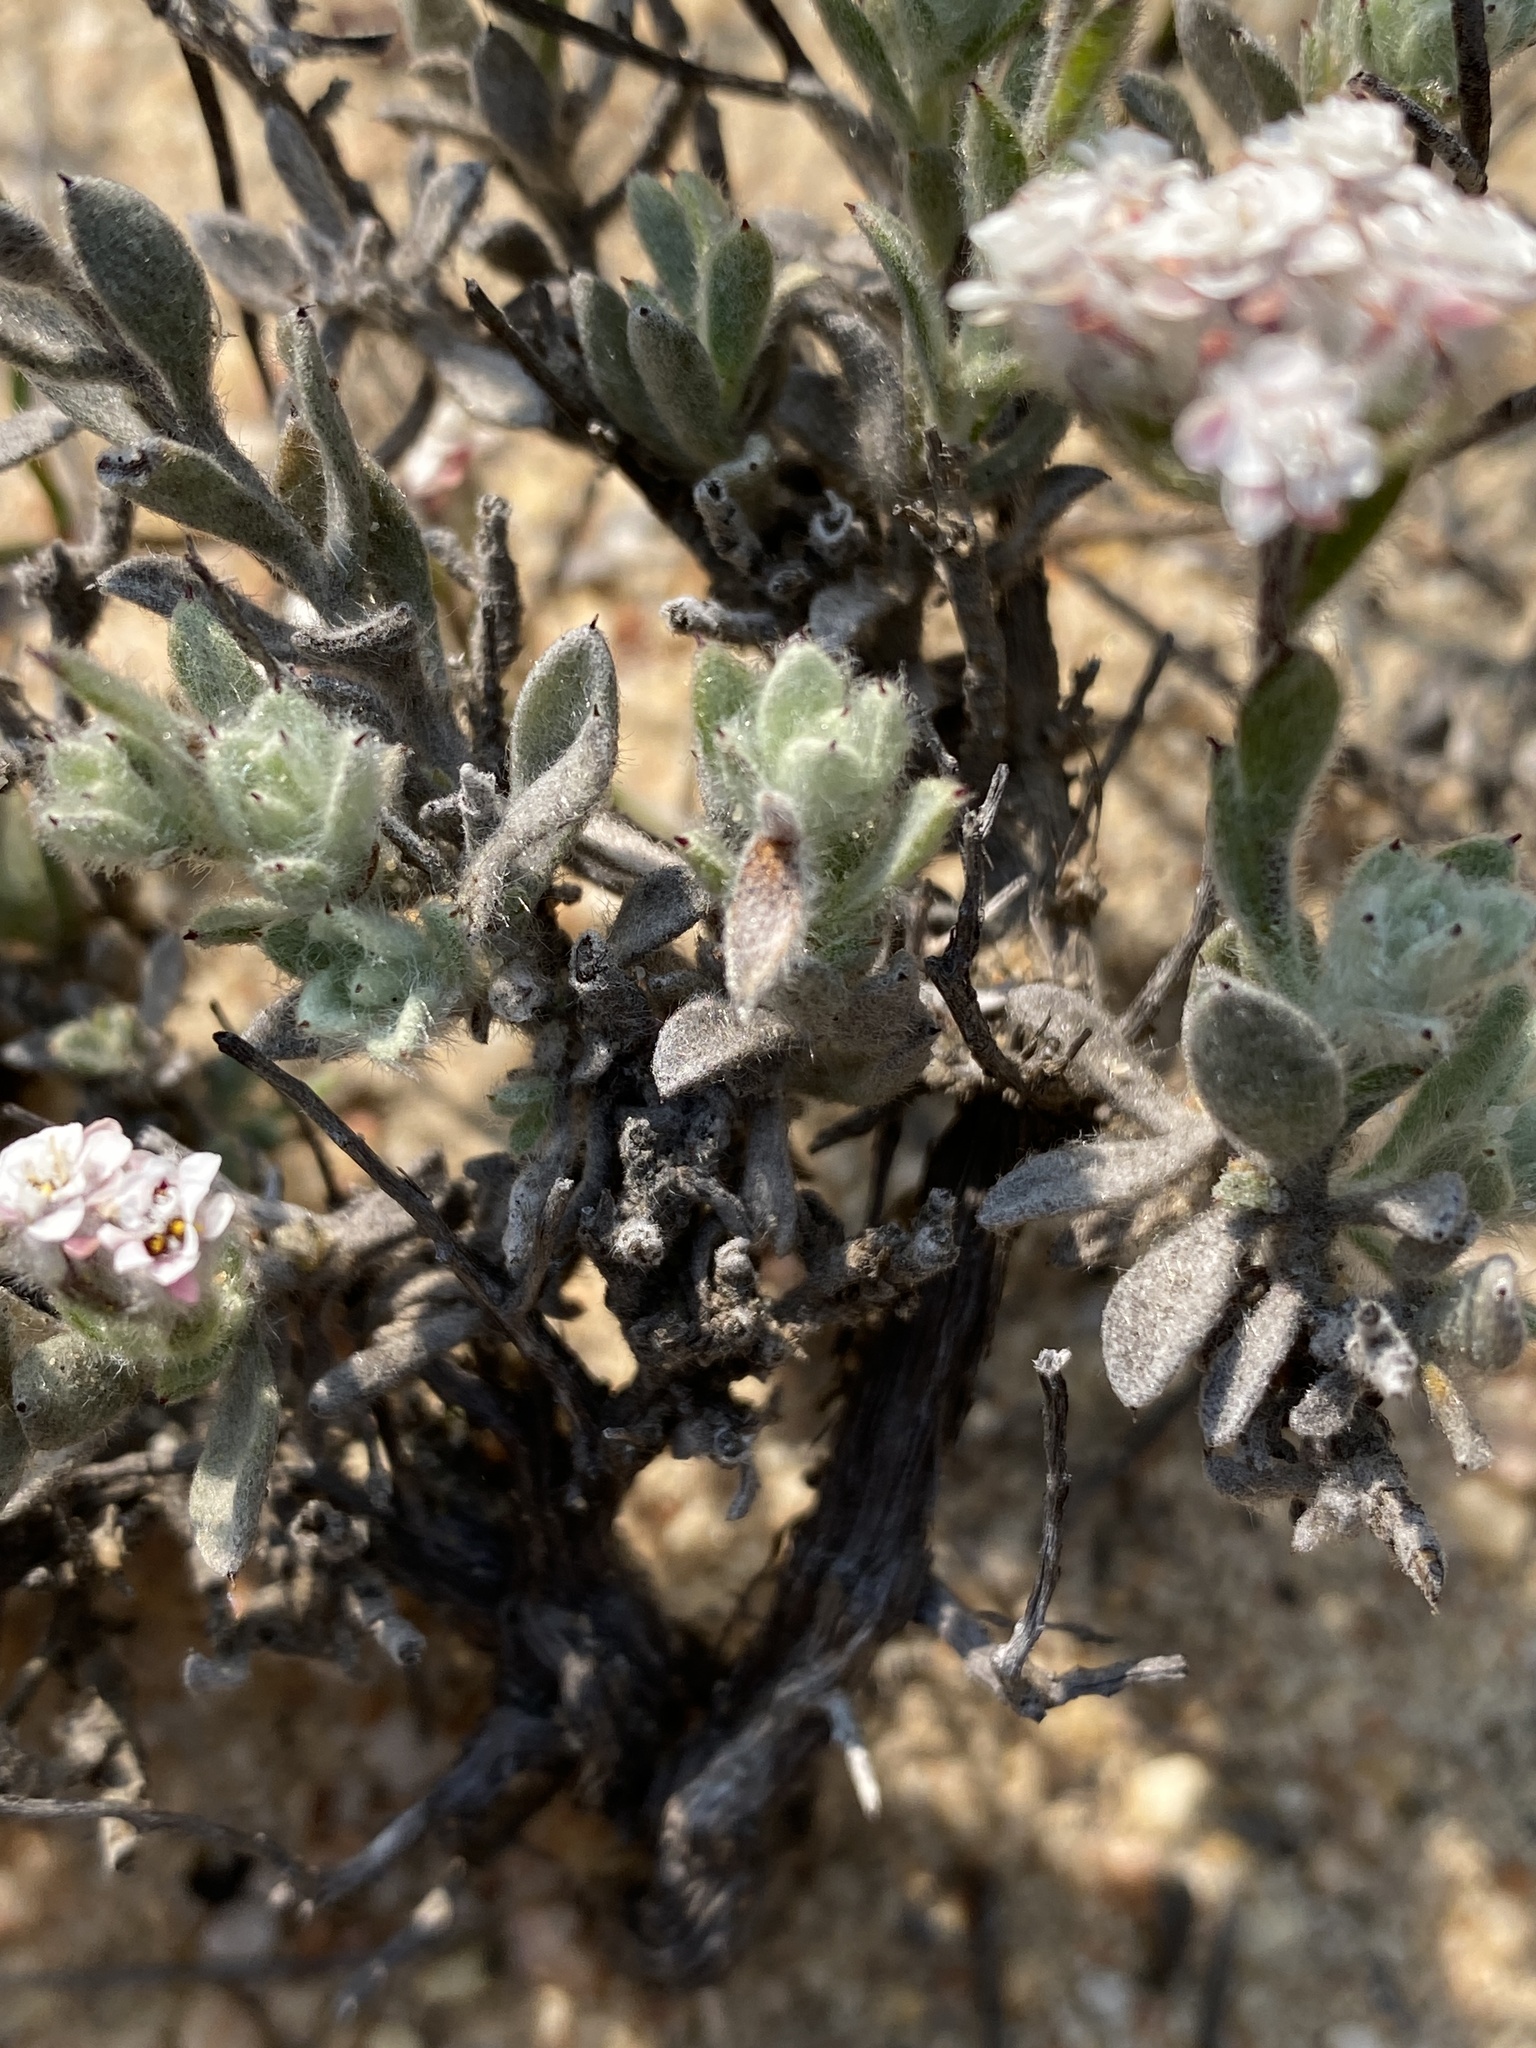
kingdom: Plantae
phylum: Tracheophyta
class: Magnoliopsida
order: Asterales
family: Asteraceae
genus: Petalacte
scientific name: Petalacte coronata
